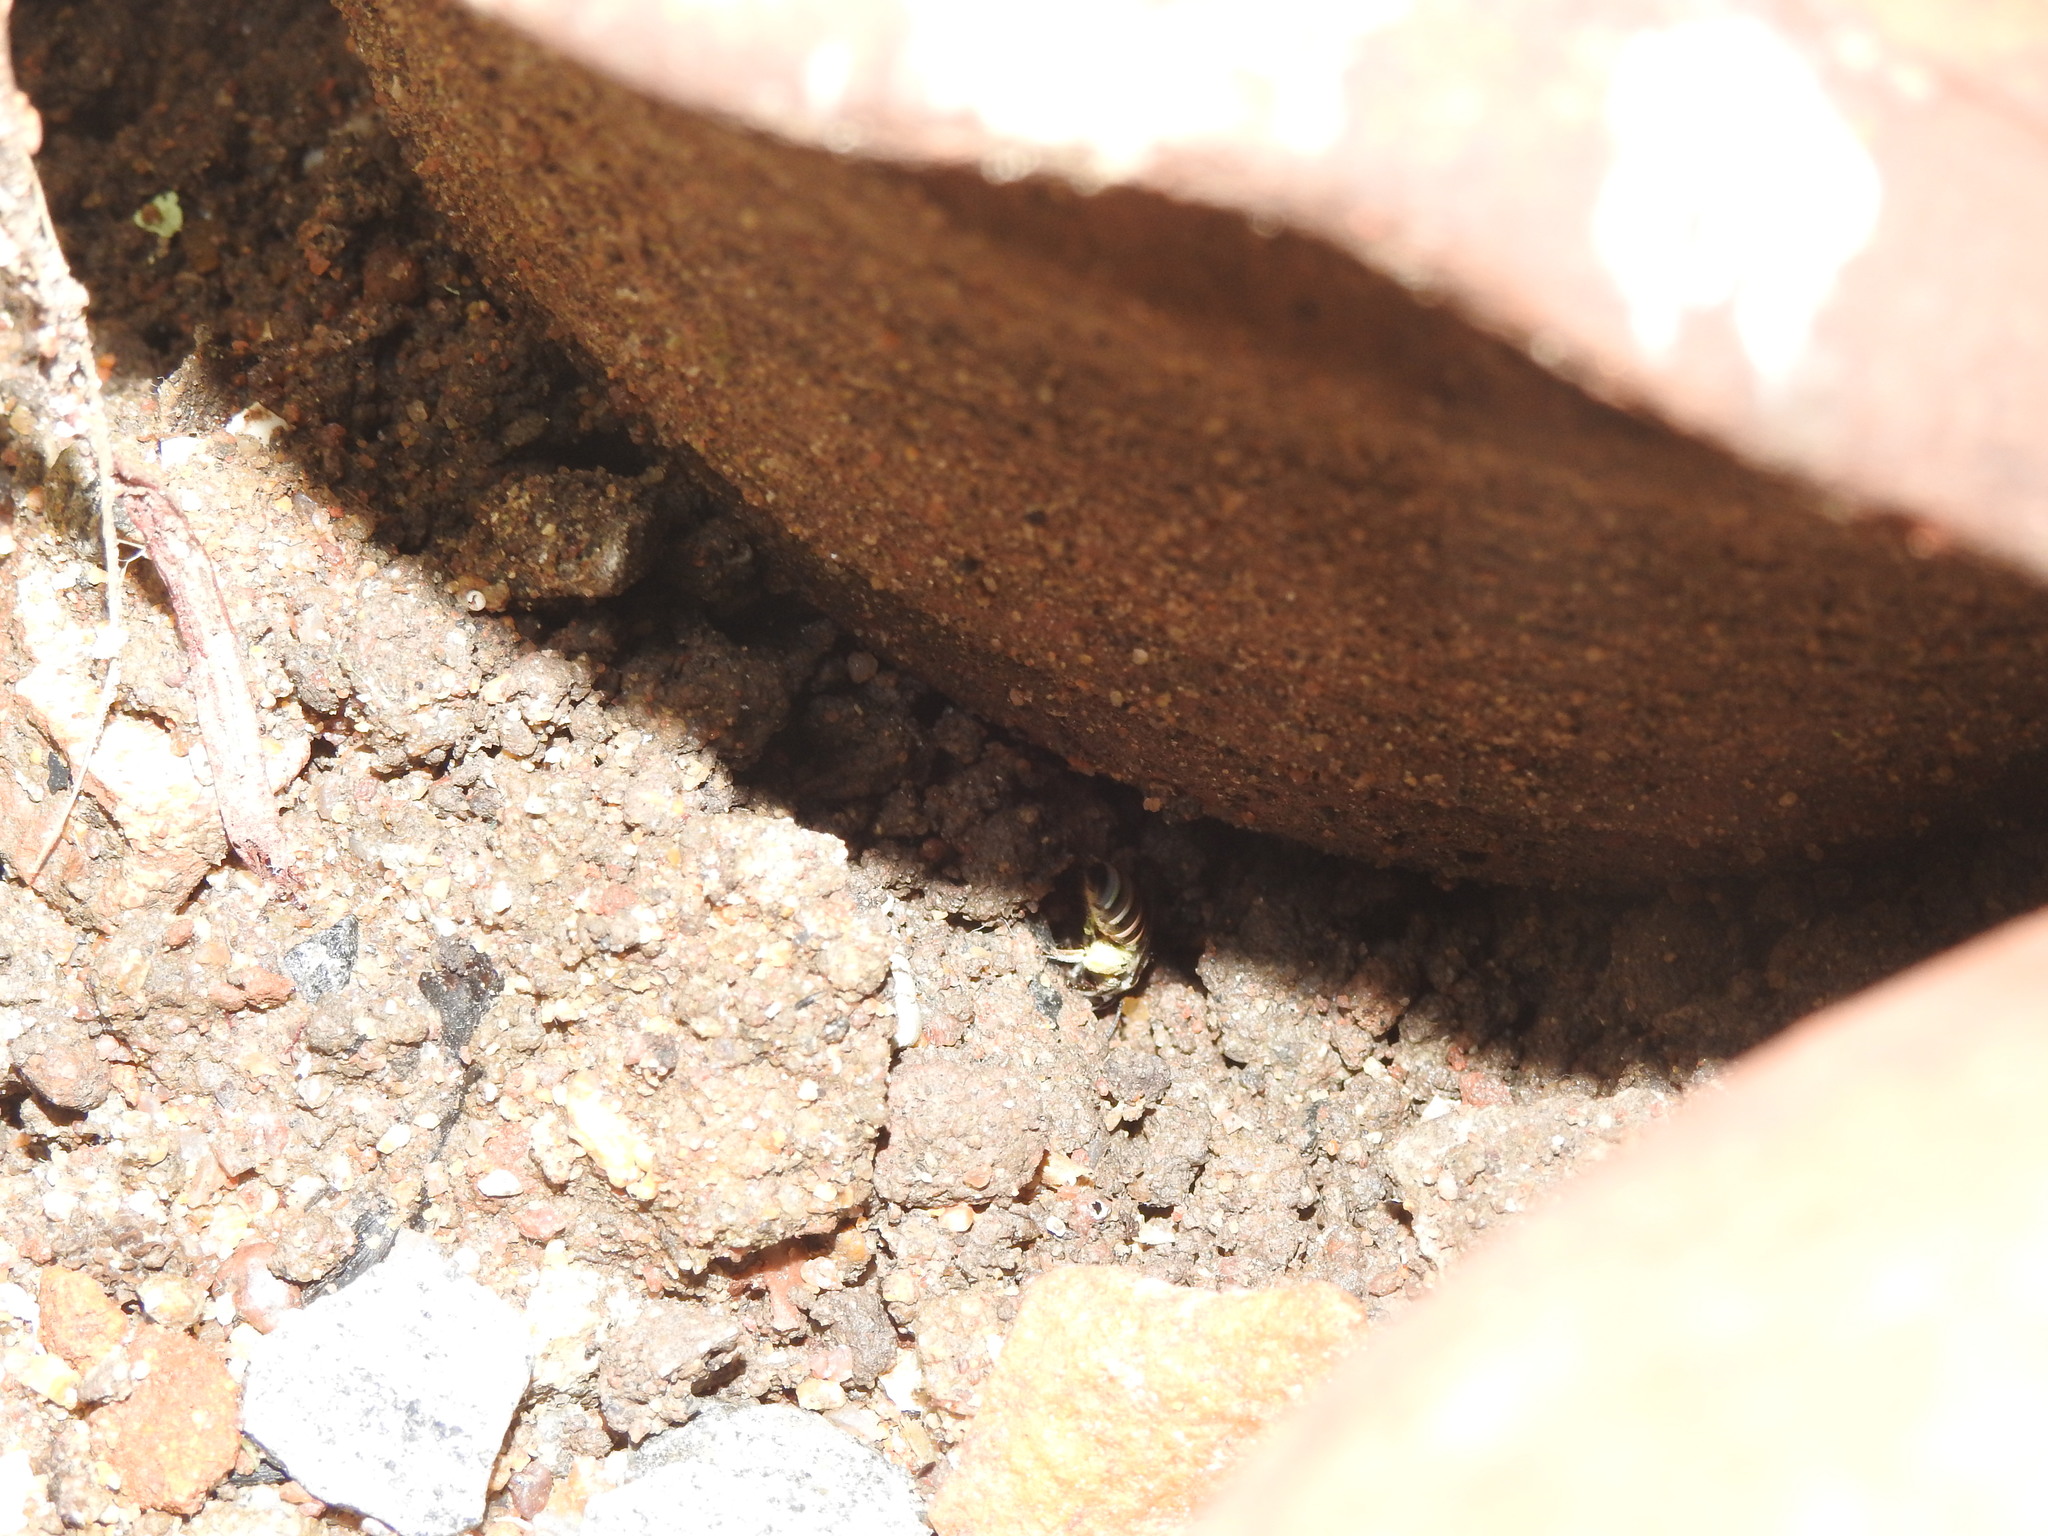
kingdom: Animalia
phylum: Arthropoda
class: Insecta
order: Hymenoptera
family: Halictidae
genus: Nomia
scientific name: Nomia westwoodi
